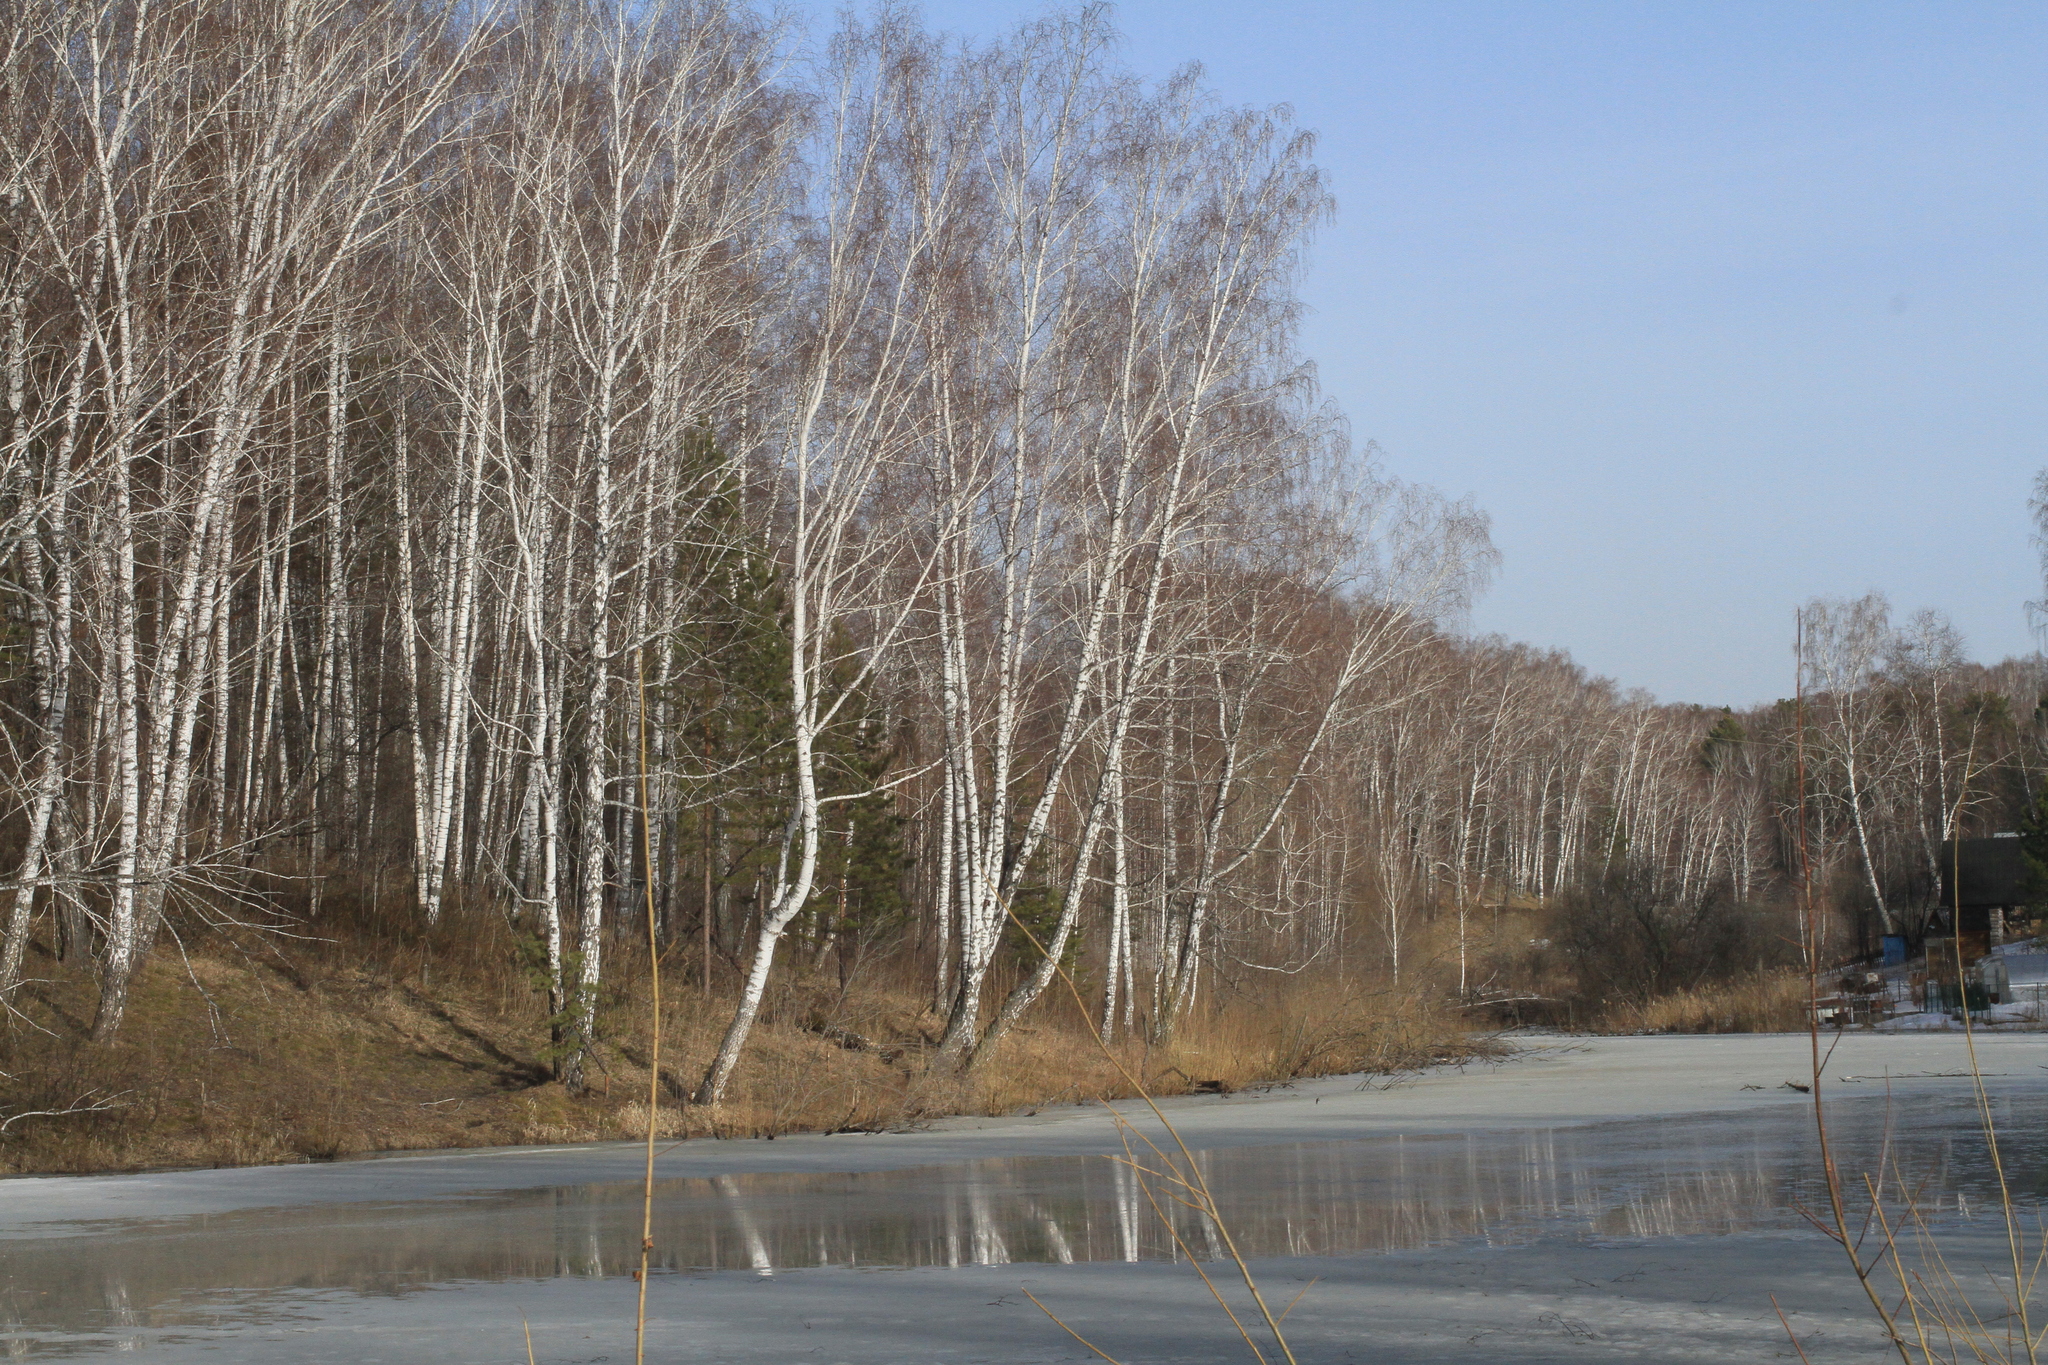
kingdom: Plantae
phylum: Tracheophyta
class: Pinopsida
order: Pinales
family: Pinaceae
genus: Pinus
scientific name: Pinus sylvestris
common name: Scots pine
